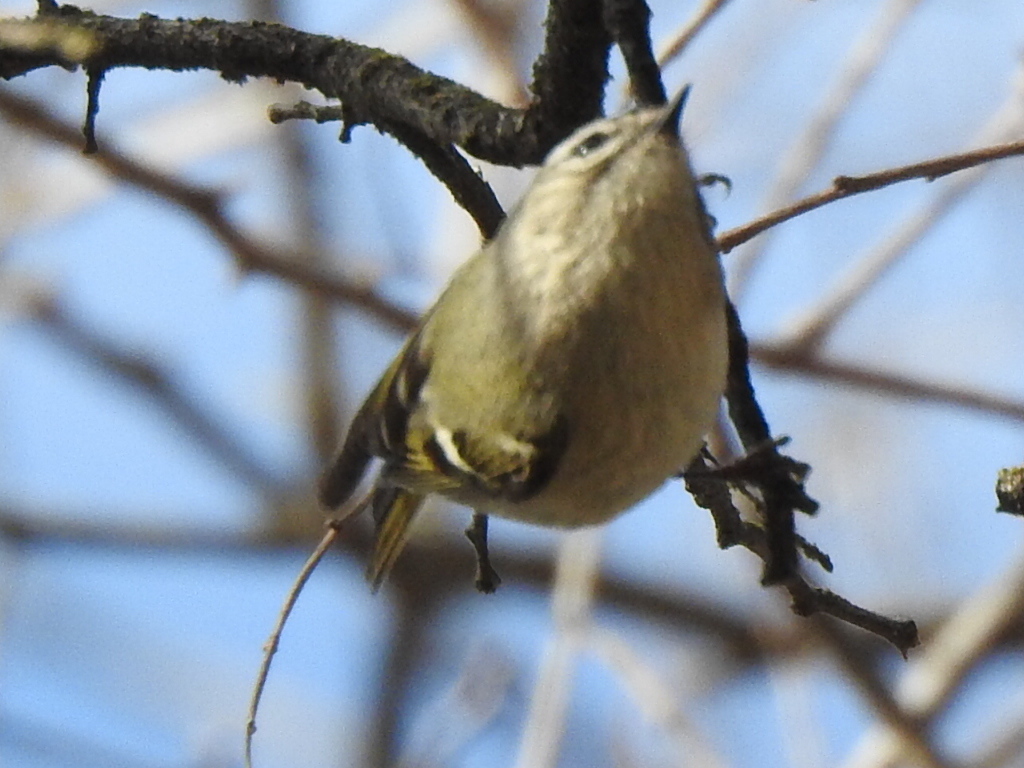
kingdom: Animalia
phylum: Chordata
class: Aves
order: Passeriformes
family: Regulidae
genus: Regulus
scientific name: Regulus satrapa
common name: Golden-crowned kinglet
